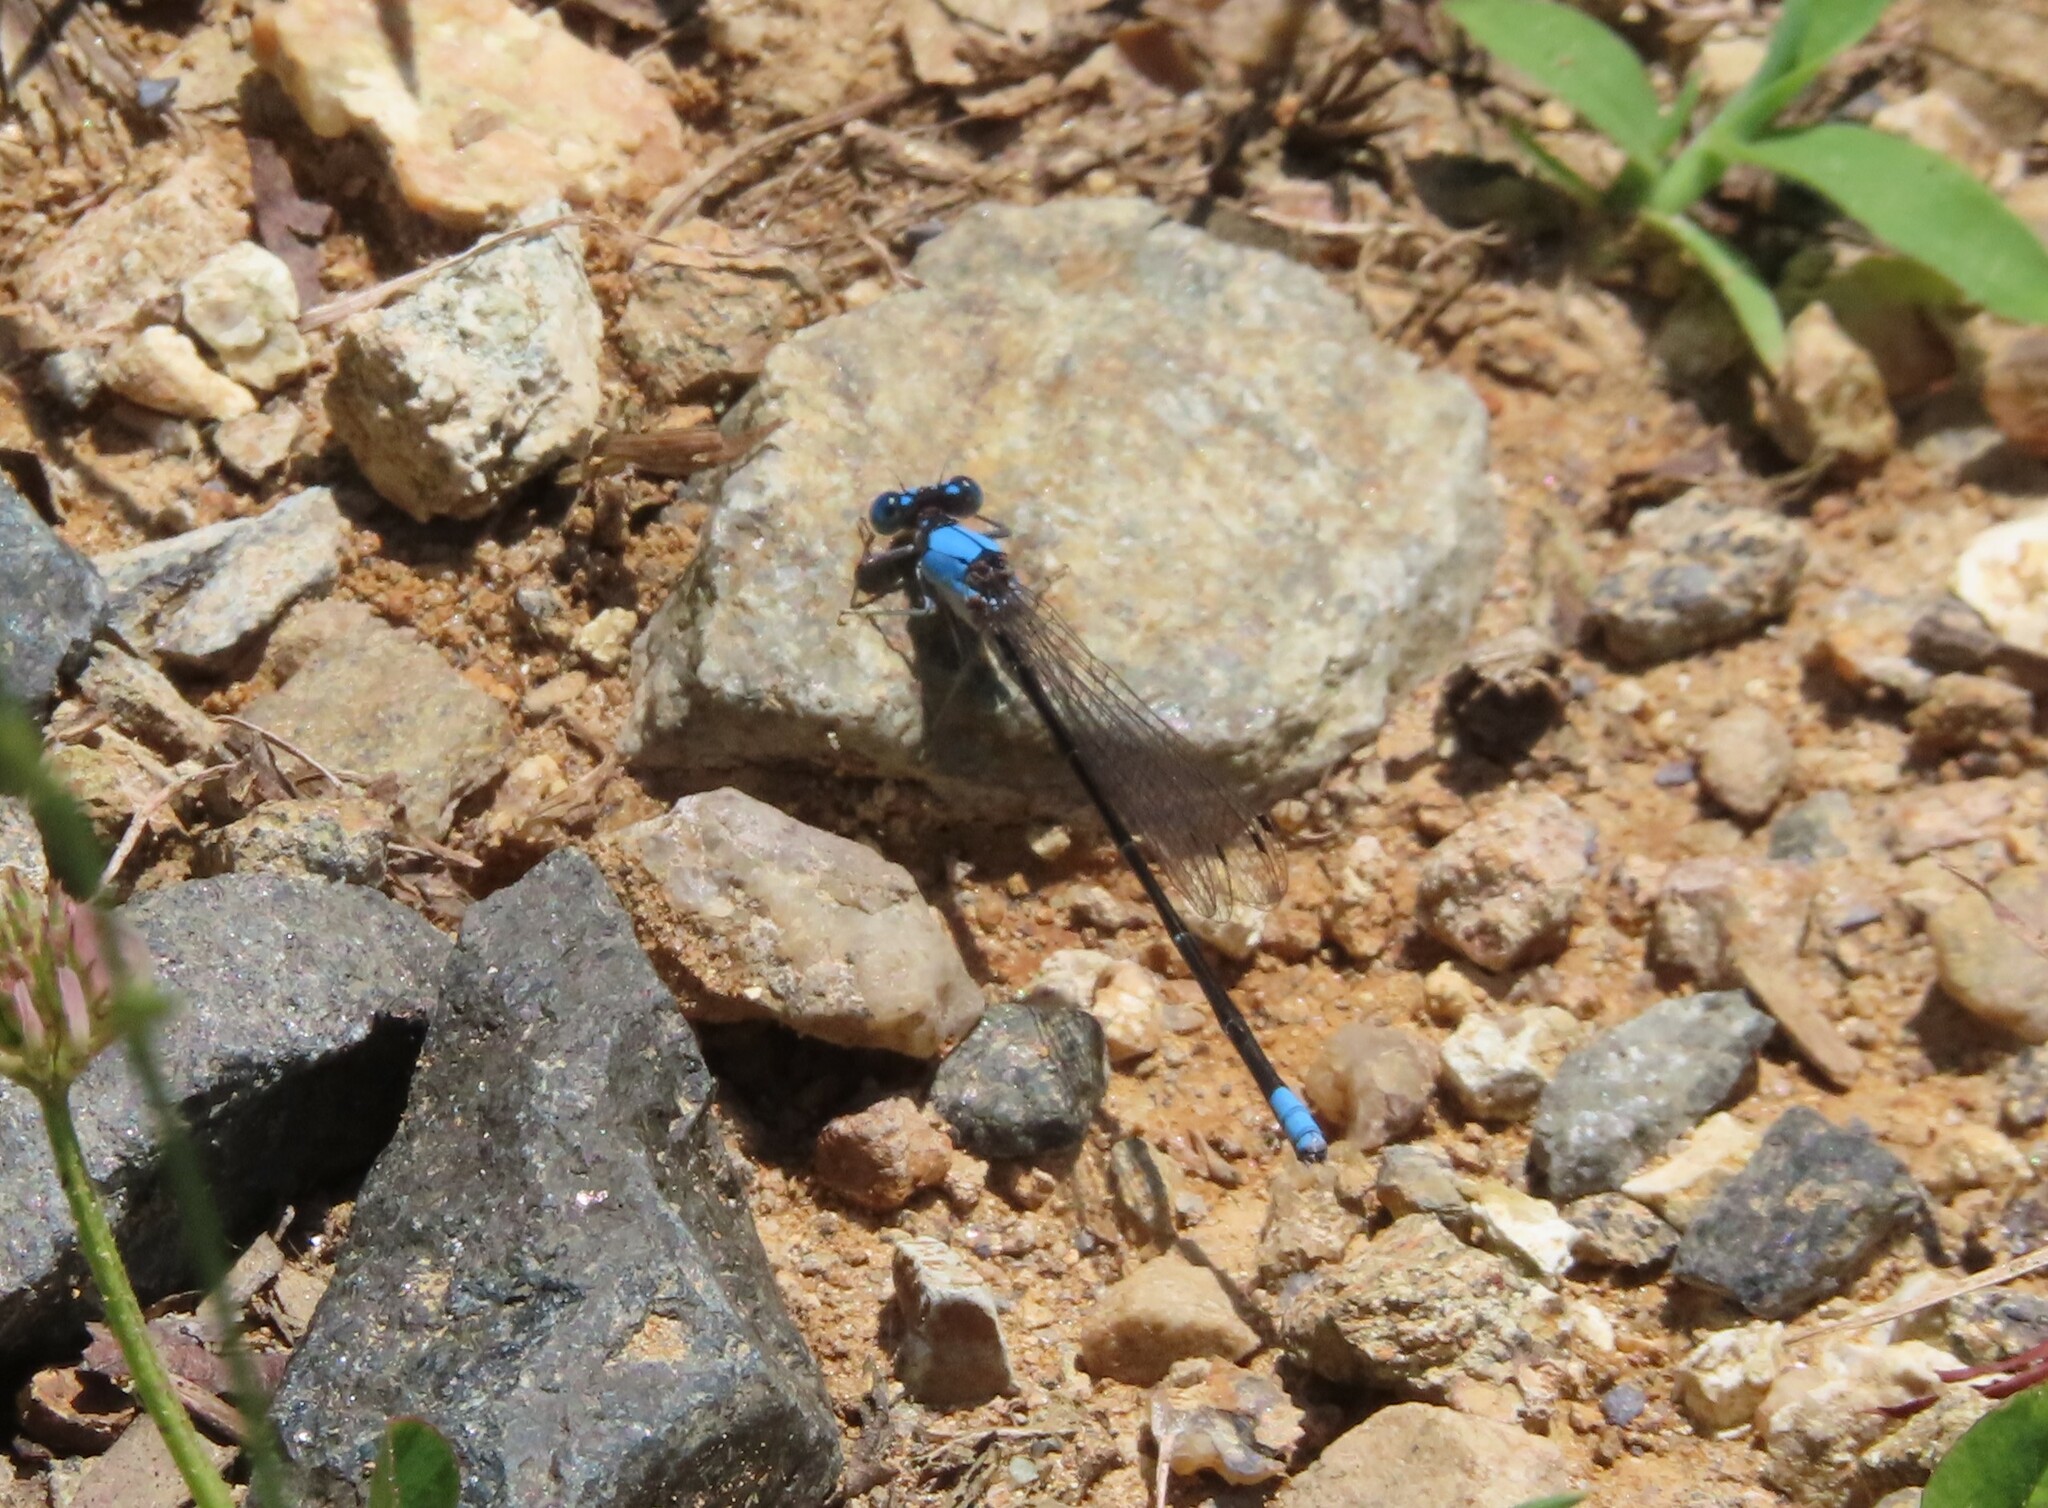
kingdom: Animalia
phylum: Arthropoda
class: Insecta
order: Odonata
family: Coenagrionidae
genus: Argia
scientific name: Argia apicalis
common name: Blue-fronted dancer
